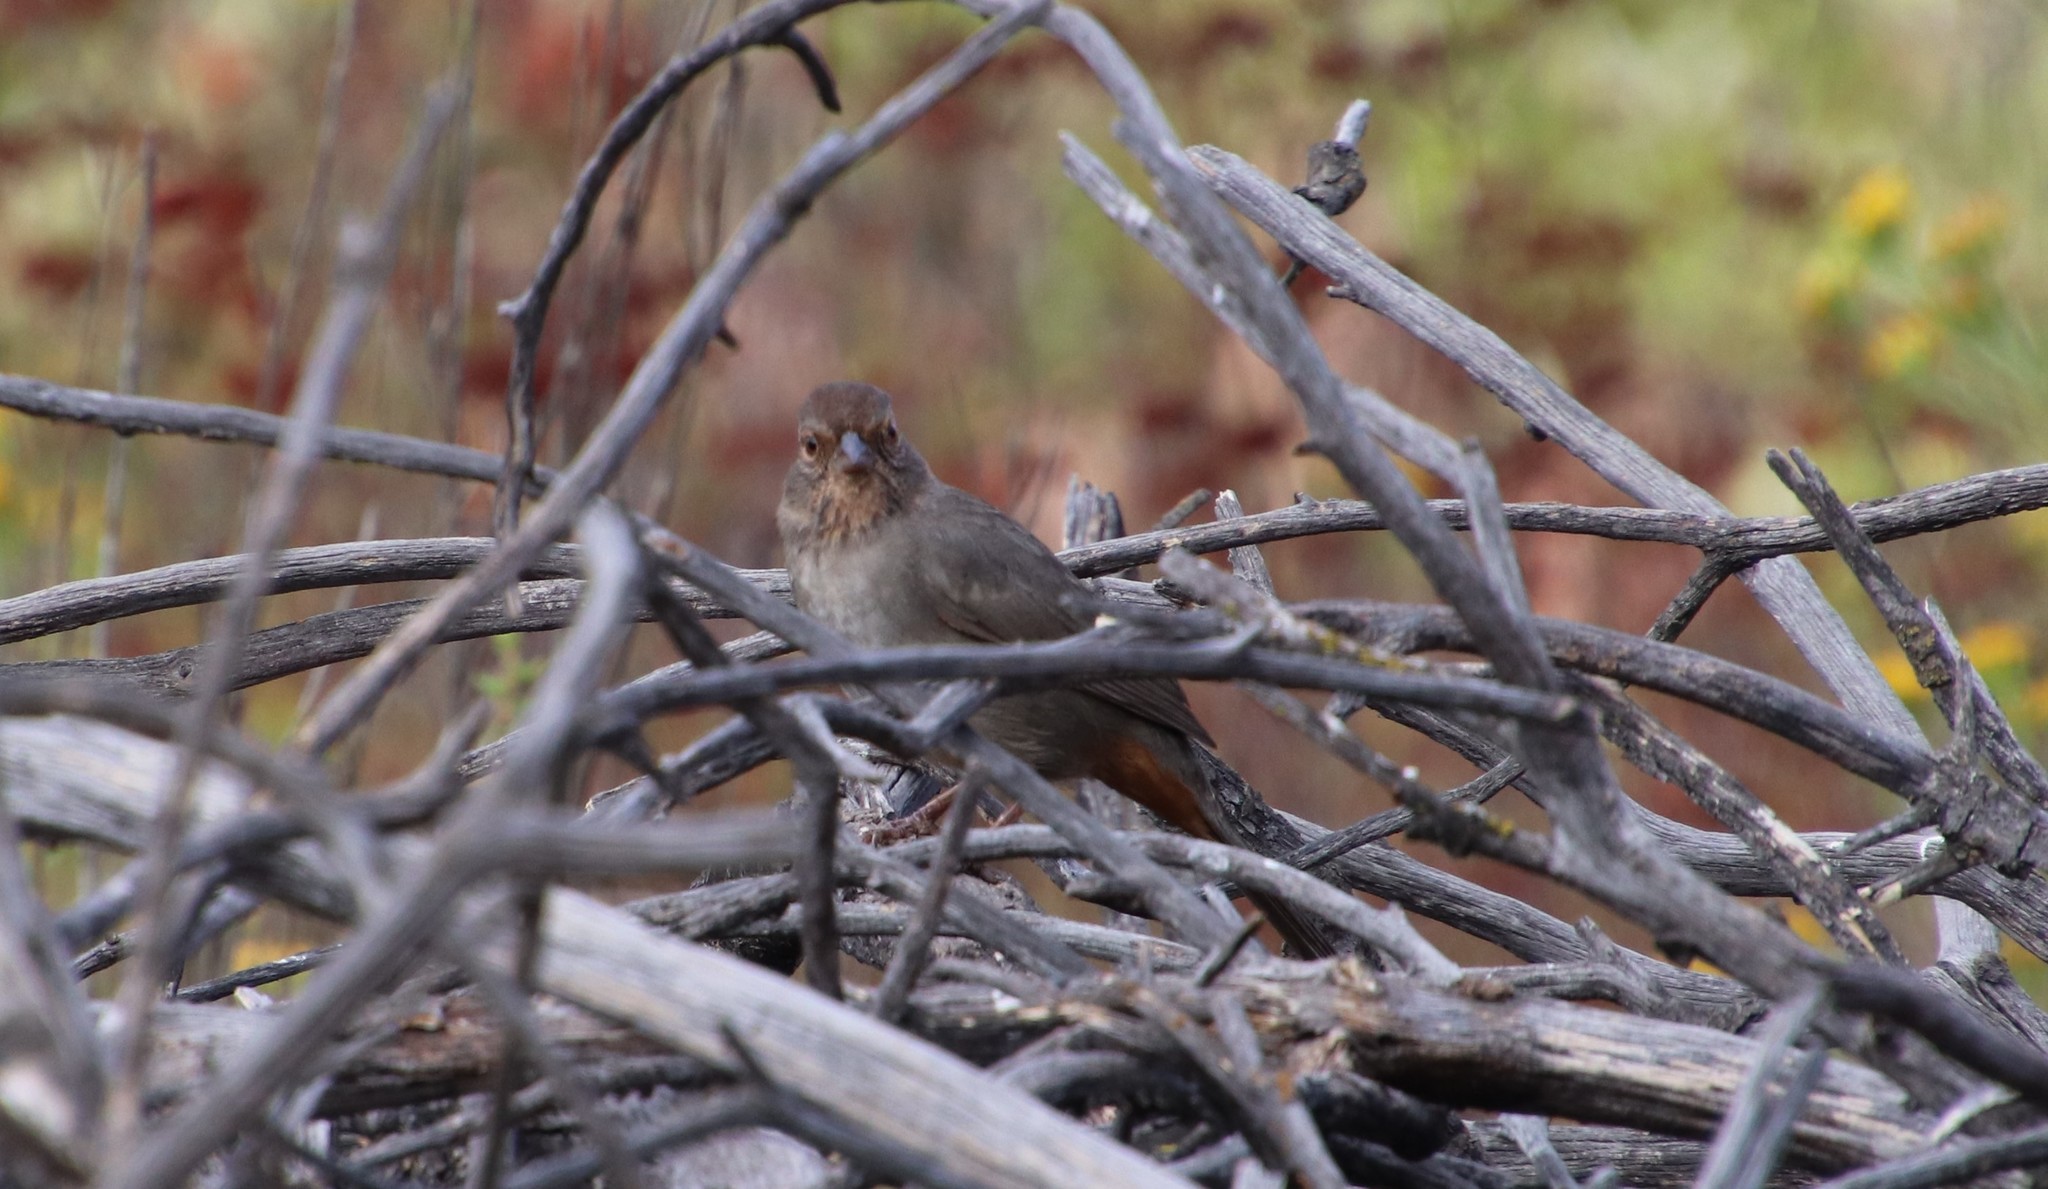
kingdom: Animalia
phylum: Chordata
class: Aves
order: Passeriformes
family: Passerellidae
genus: Melozone
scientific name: Melozone crissalis
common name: California towhee
